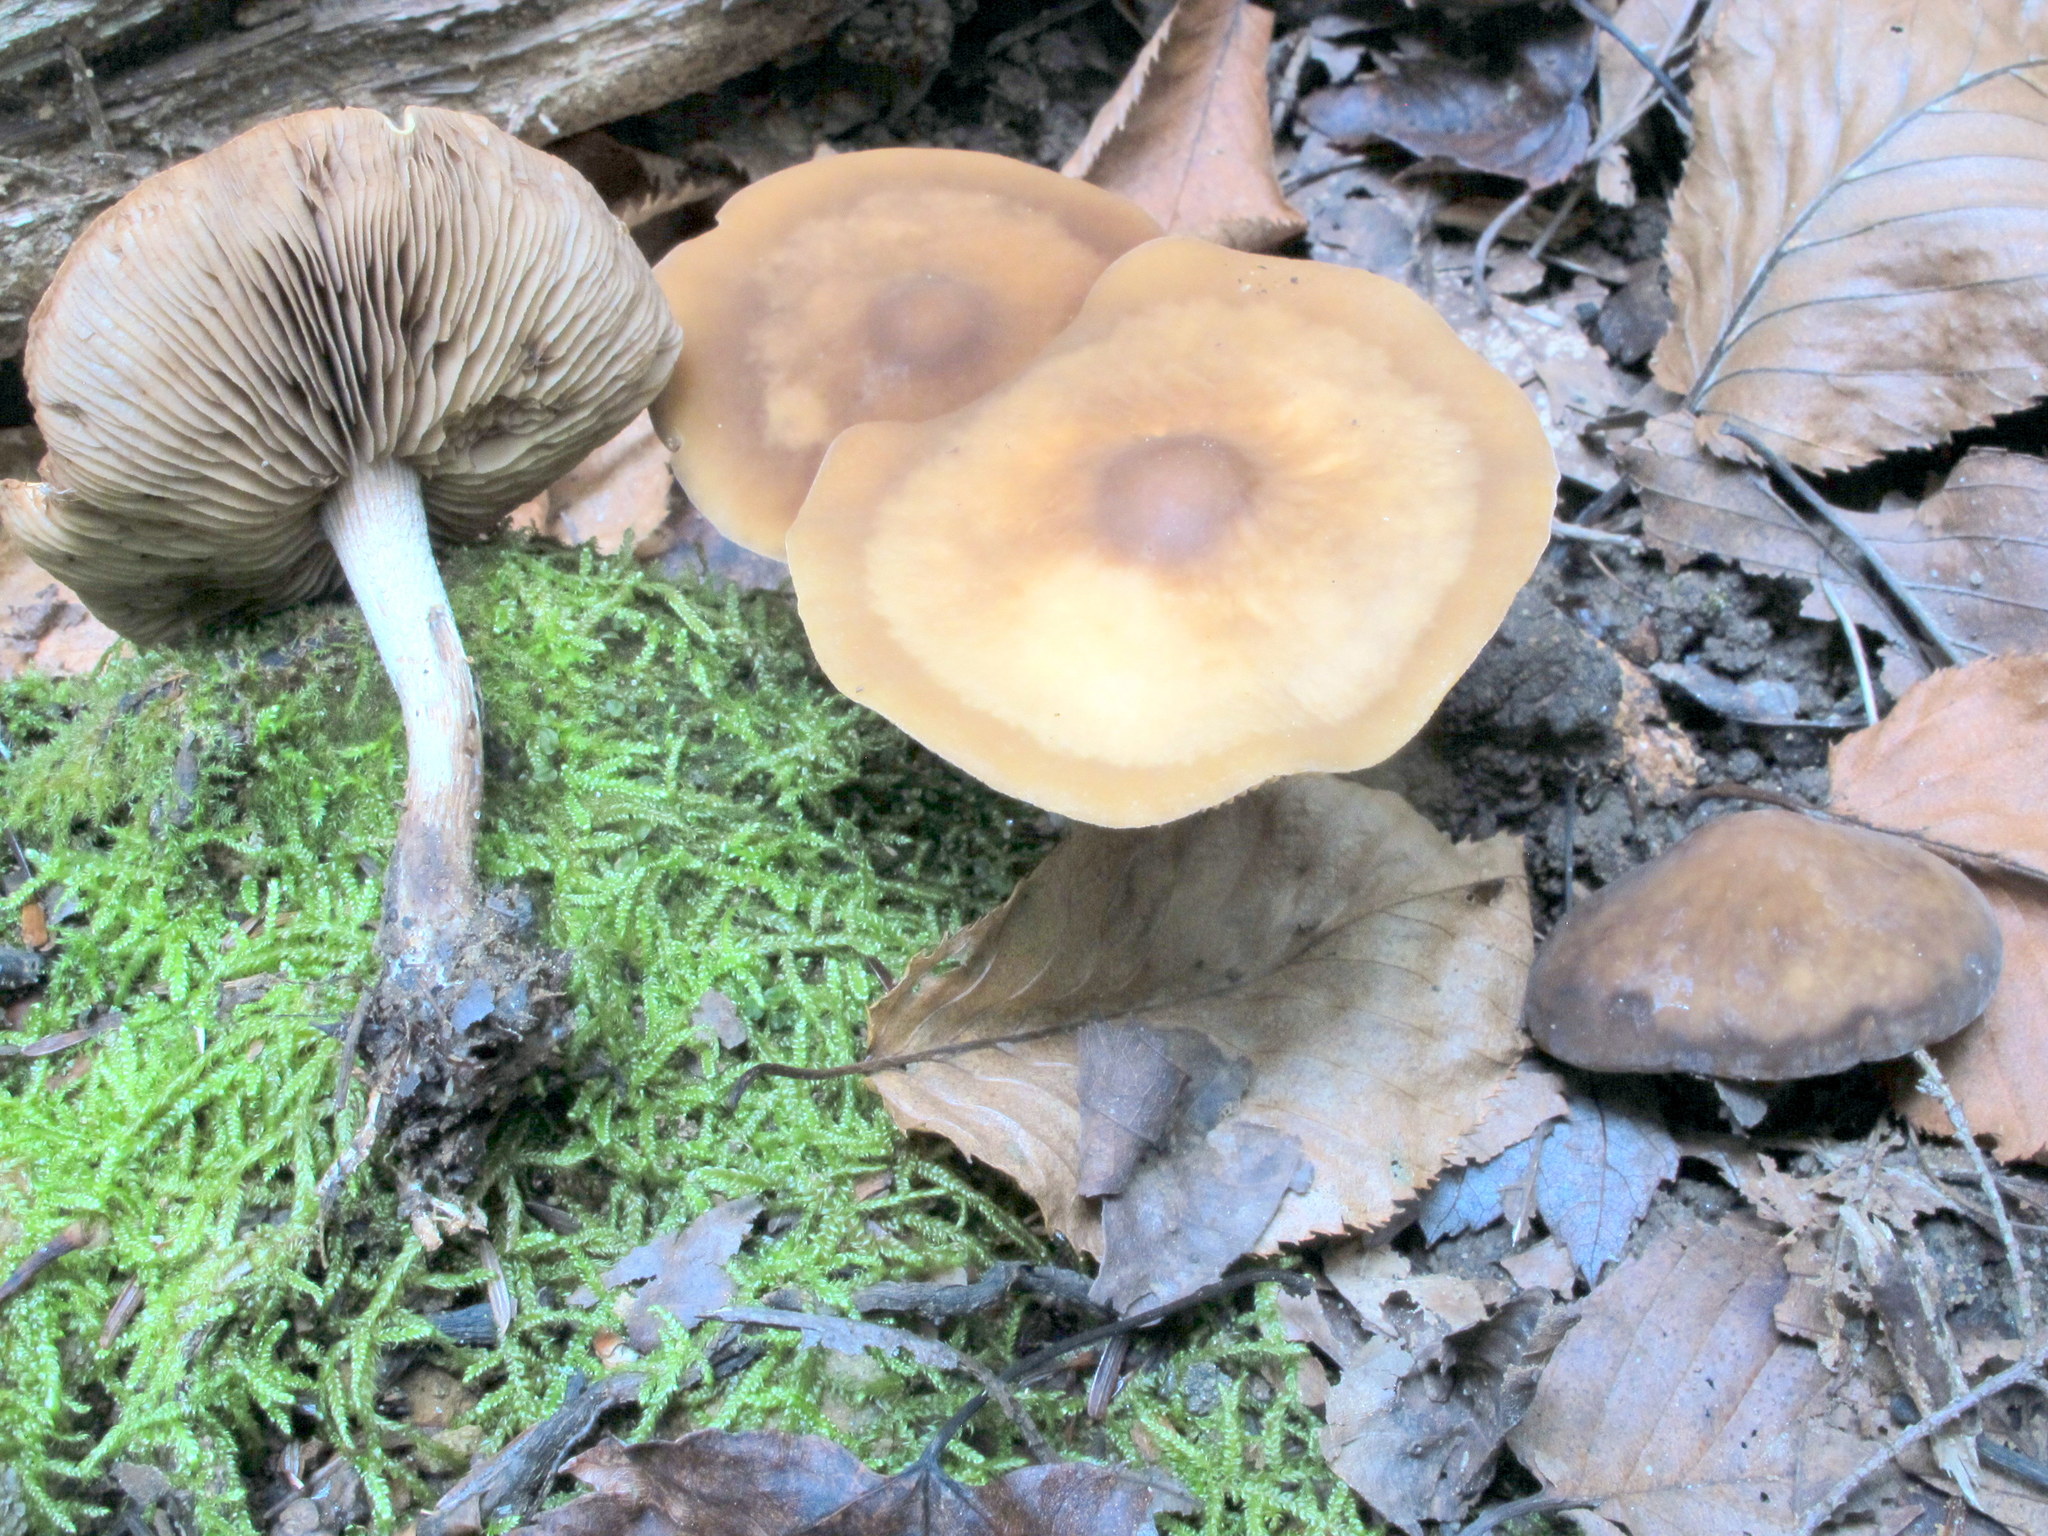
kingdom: Fungi
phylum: Basidiomycota
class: Agaricomycetes
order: Agaricales
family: Strophariaceae
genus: Agrocybe
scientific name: Agrocybe firma
